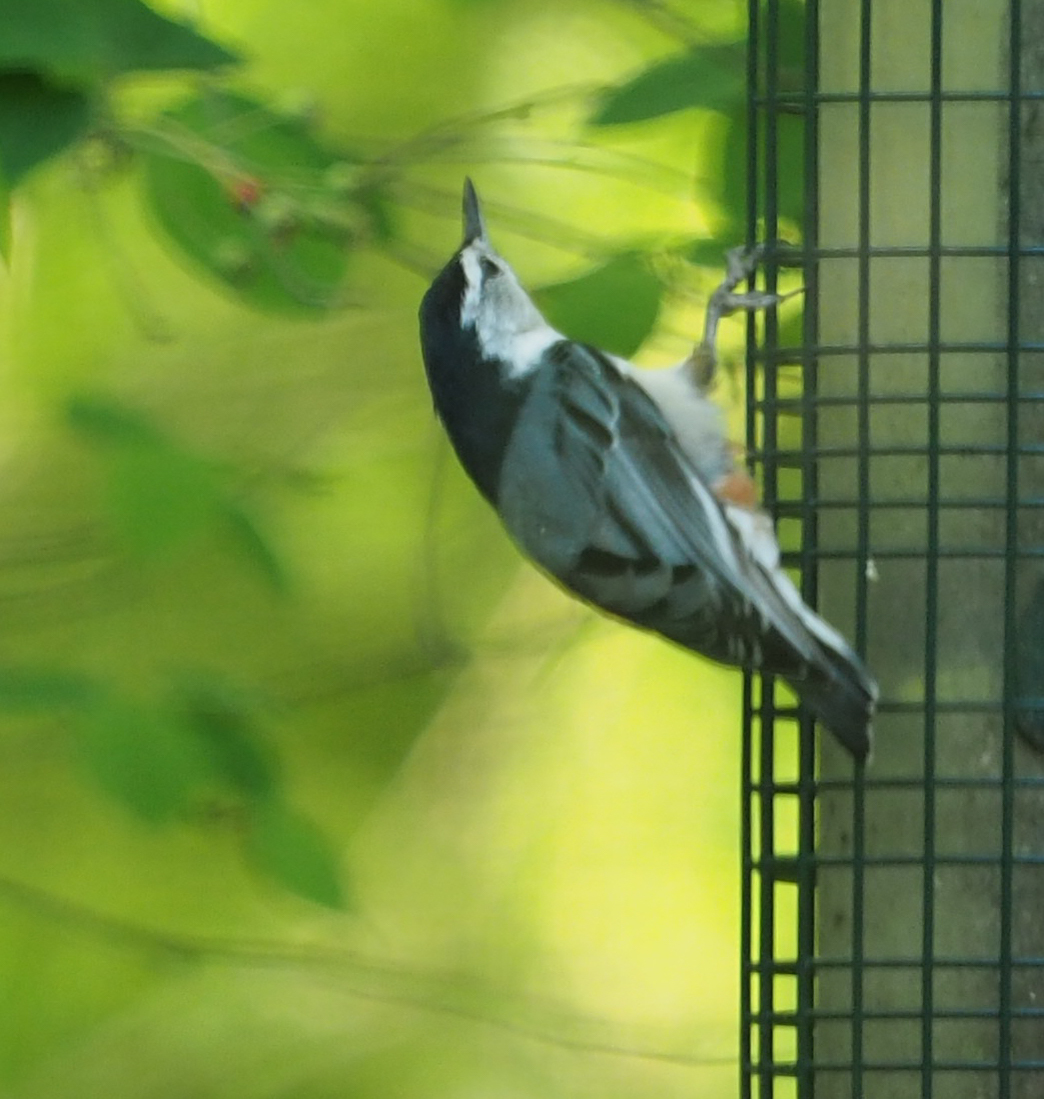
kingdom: Animalia
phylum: Chordata
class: Aves
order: Passeriformes
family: Sittidae
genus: Sitta
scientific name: Sitta carolinensis
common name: White-breasted nuthatch
